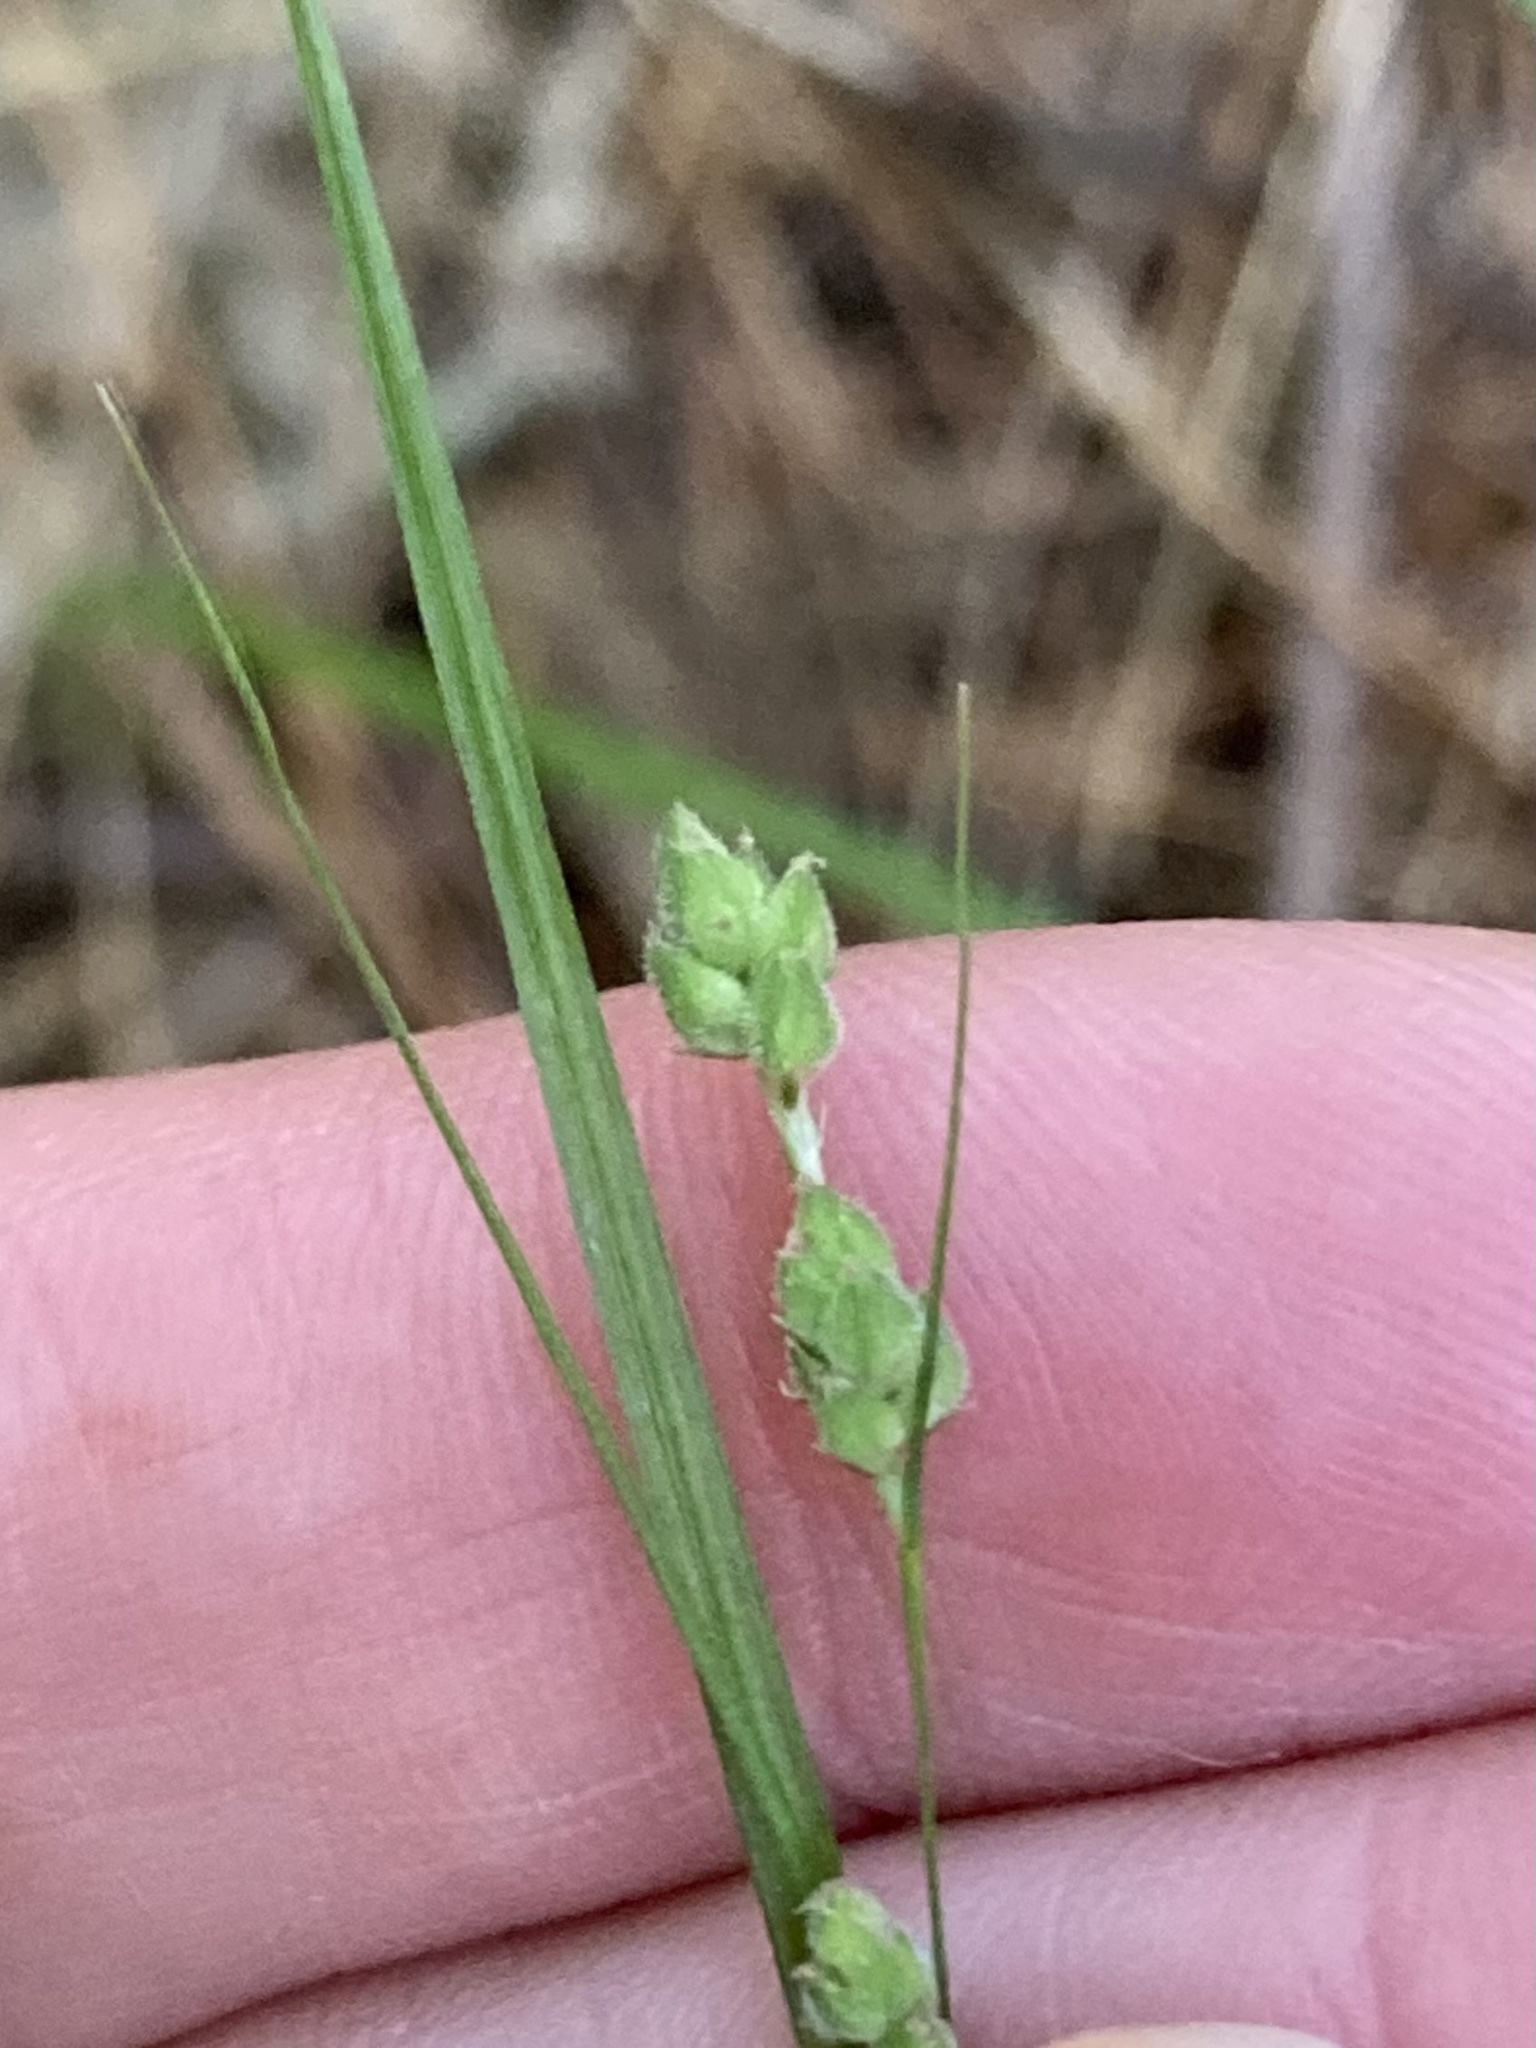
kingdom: Plantae
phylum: Tracheophyta
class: Liliopsida
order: Poales
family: Cyperaceae
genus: Carex
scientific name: Carex swanii
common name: Downy green sedge
